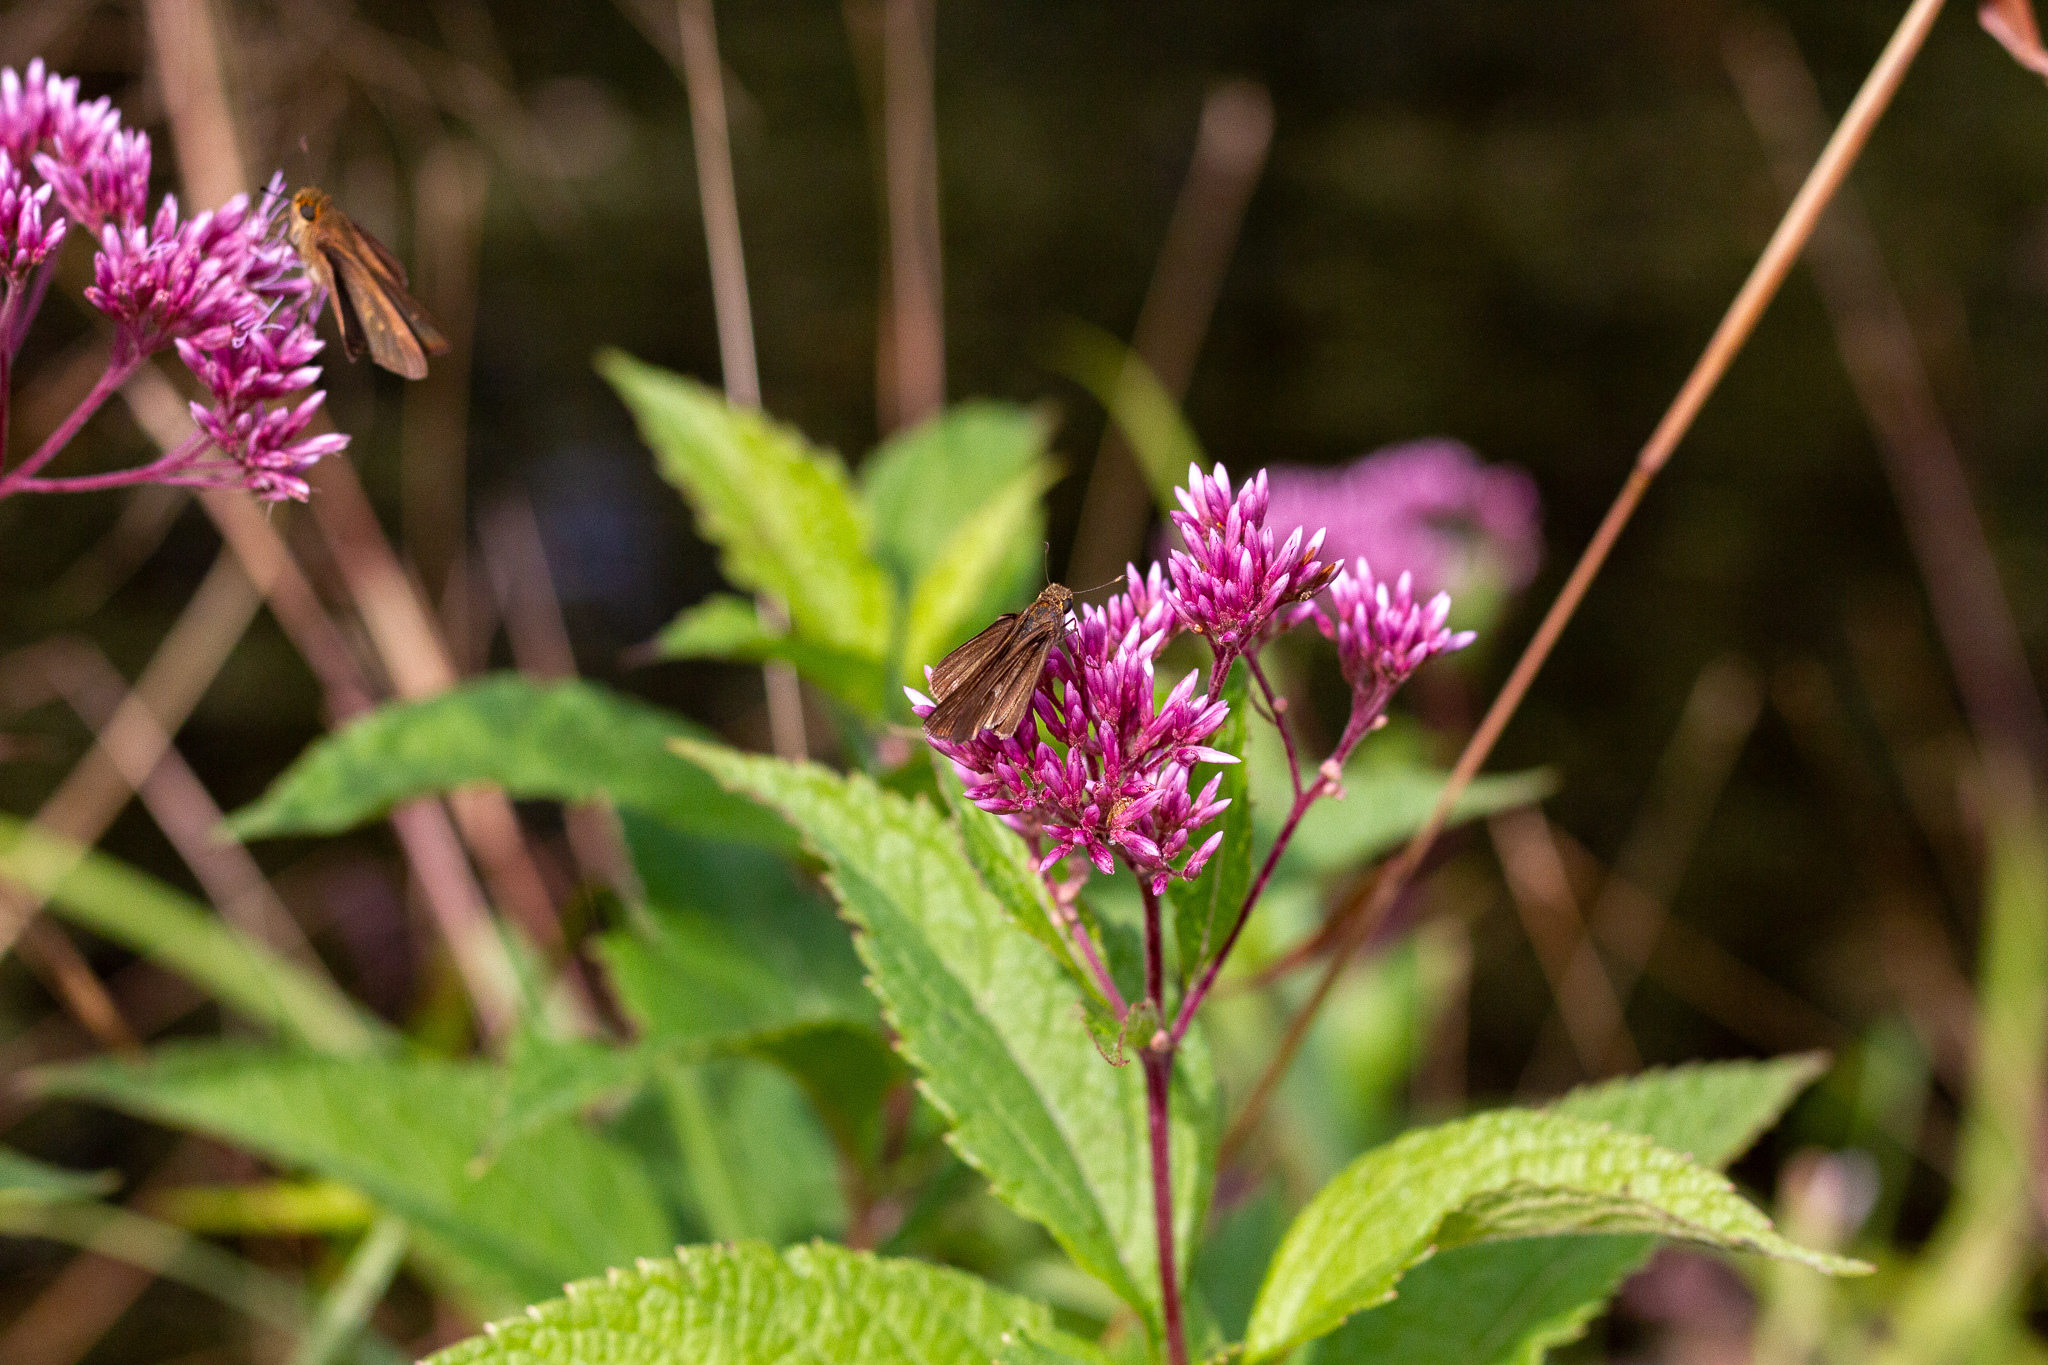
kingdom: Animalia
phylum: Arthropoda
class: Insecta
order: Lepidoptera
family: Hesperiidae
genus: Panoquina
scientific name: Panoquina ocola
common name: Ocola skipper
